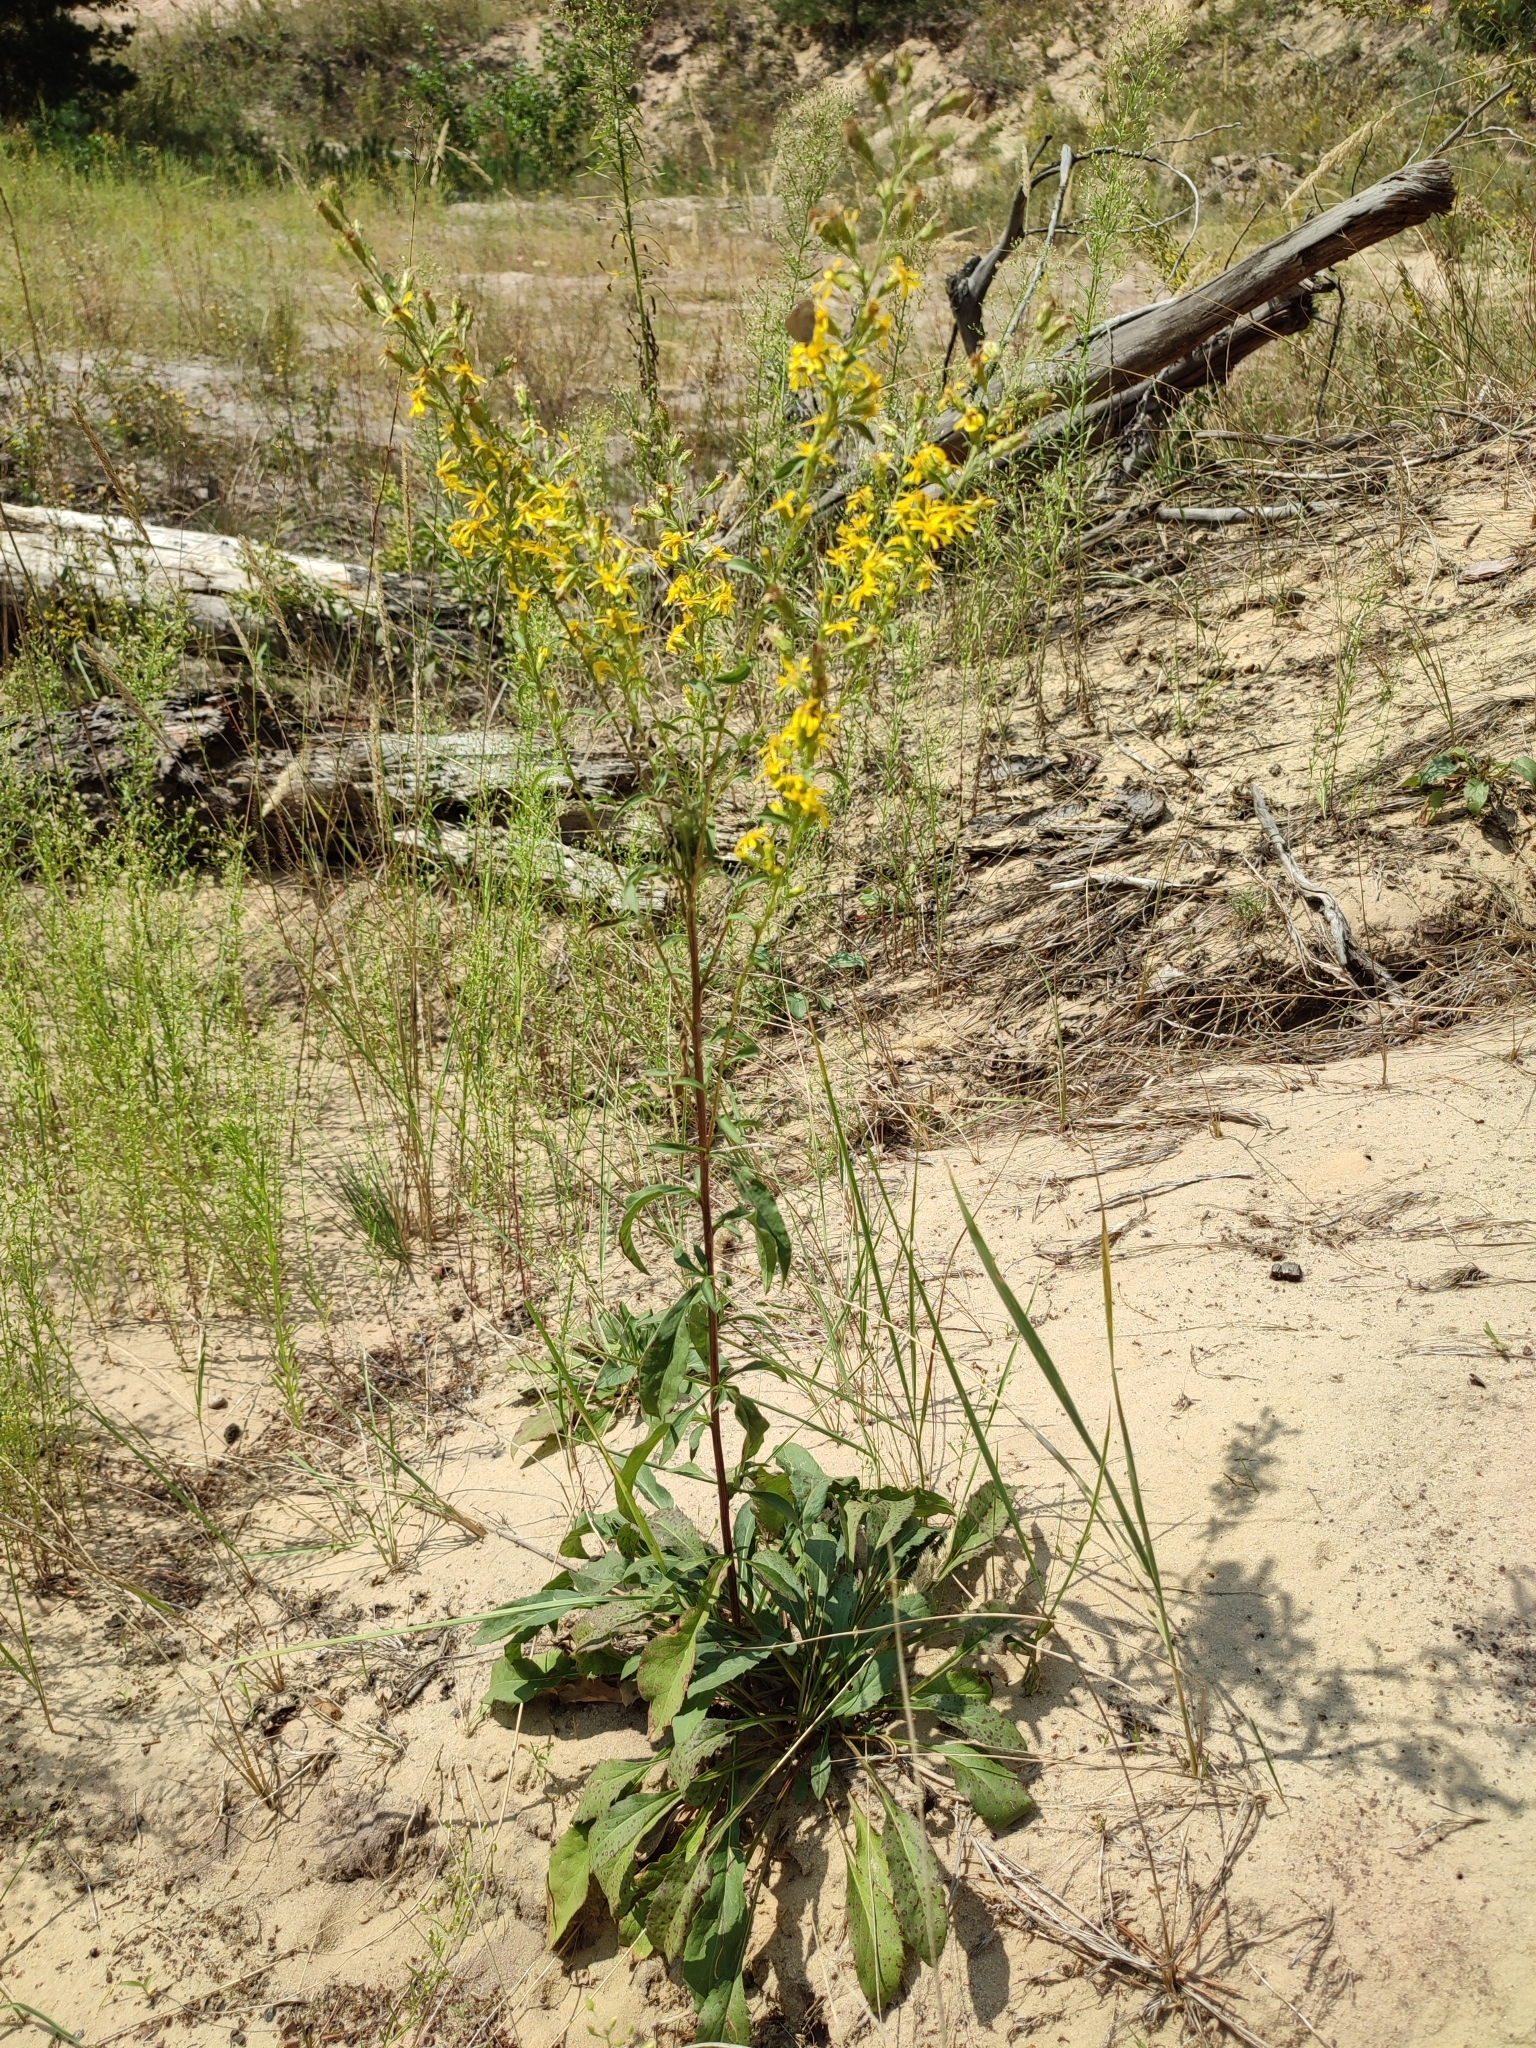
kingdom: Plantae
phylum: Tracheophyta
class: Magnoliopsida
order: Asterales
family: Asteraceae
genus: Solidago
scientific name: Solidago virgaurea
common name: Goldenrod
